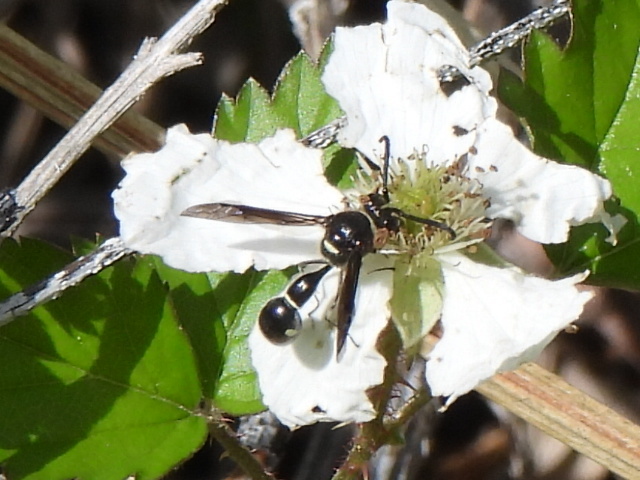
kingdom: Animalia
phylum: Arthropoda
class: Insecta
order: Hymenoptera
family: Vespidae
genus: Eumenes
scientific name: Eumenes fraternus
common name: Fraternal potter wasp
